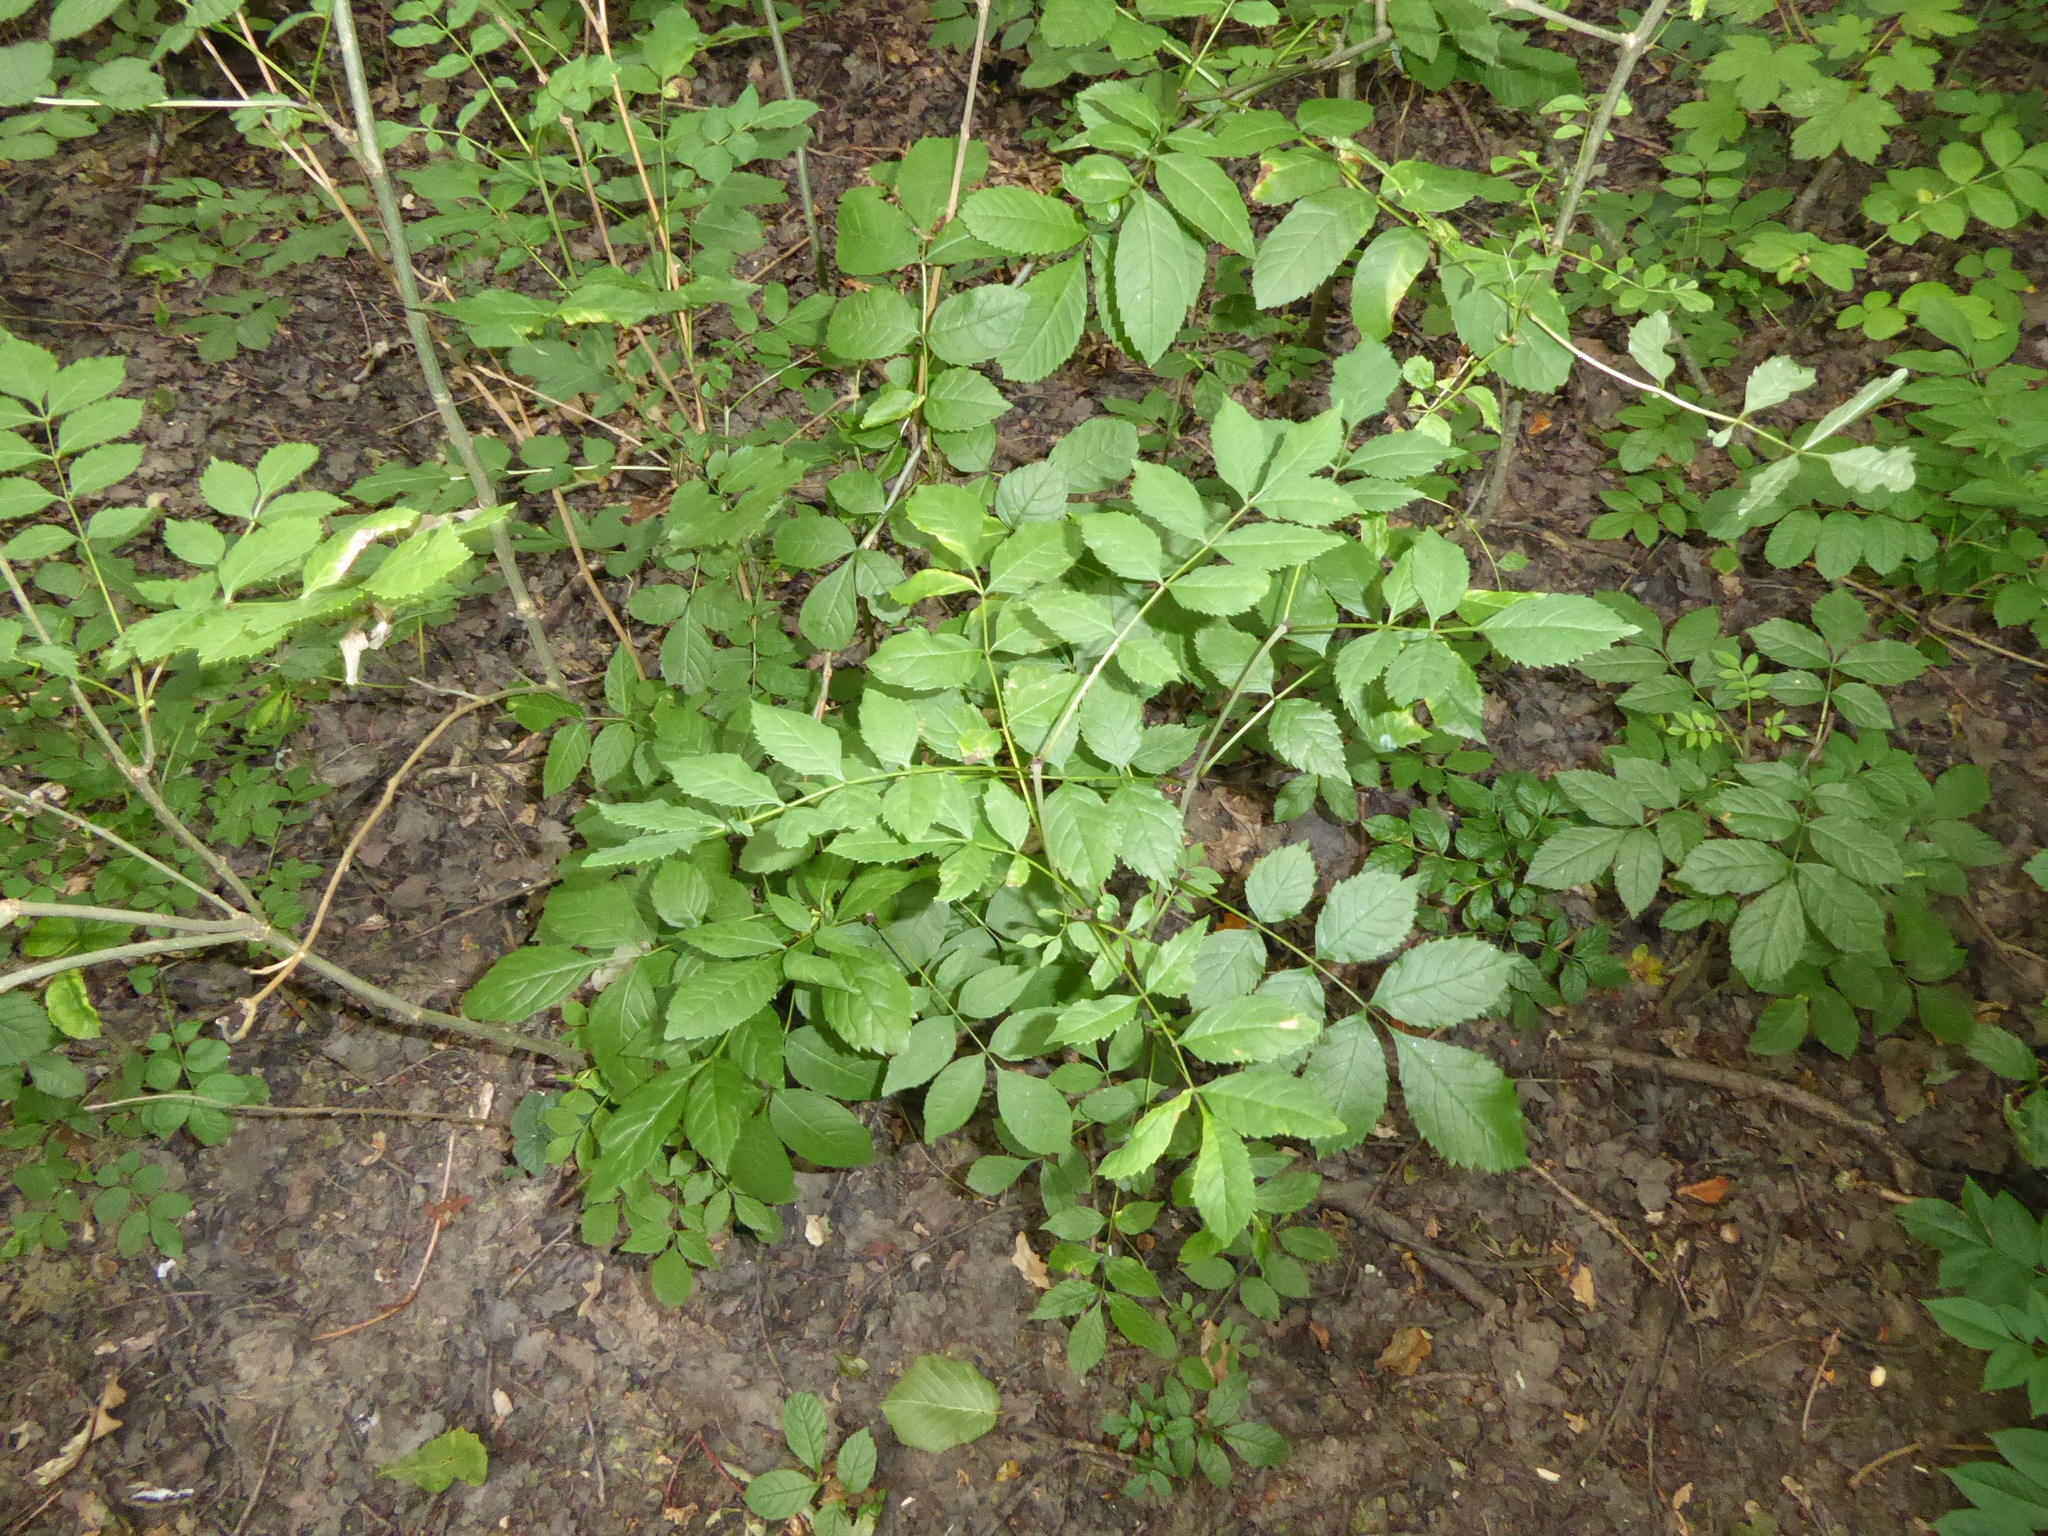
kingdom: Plantae
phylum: Tracheophyta
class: Magnoliopsida
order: Lamiales
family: Oleaceae
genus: Fraxinus
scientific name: Fraxinus excelsior
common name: European ash
